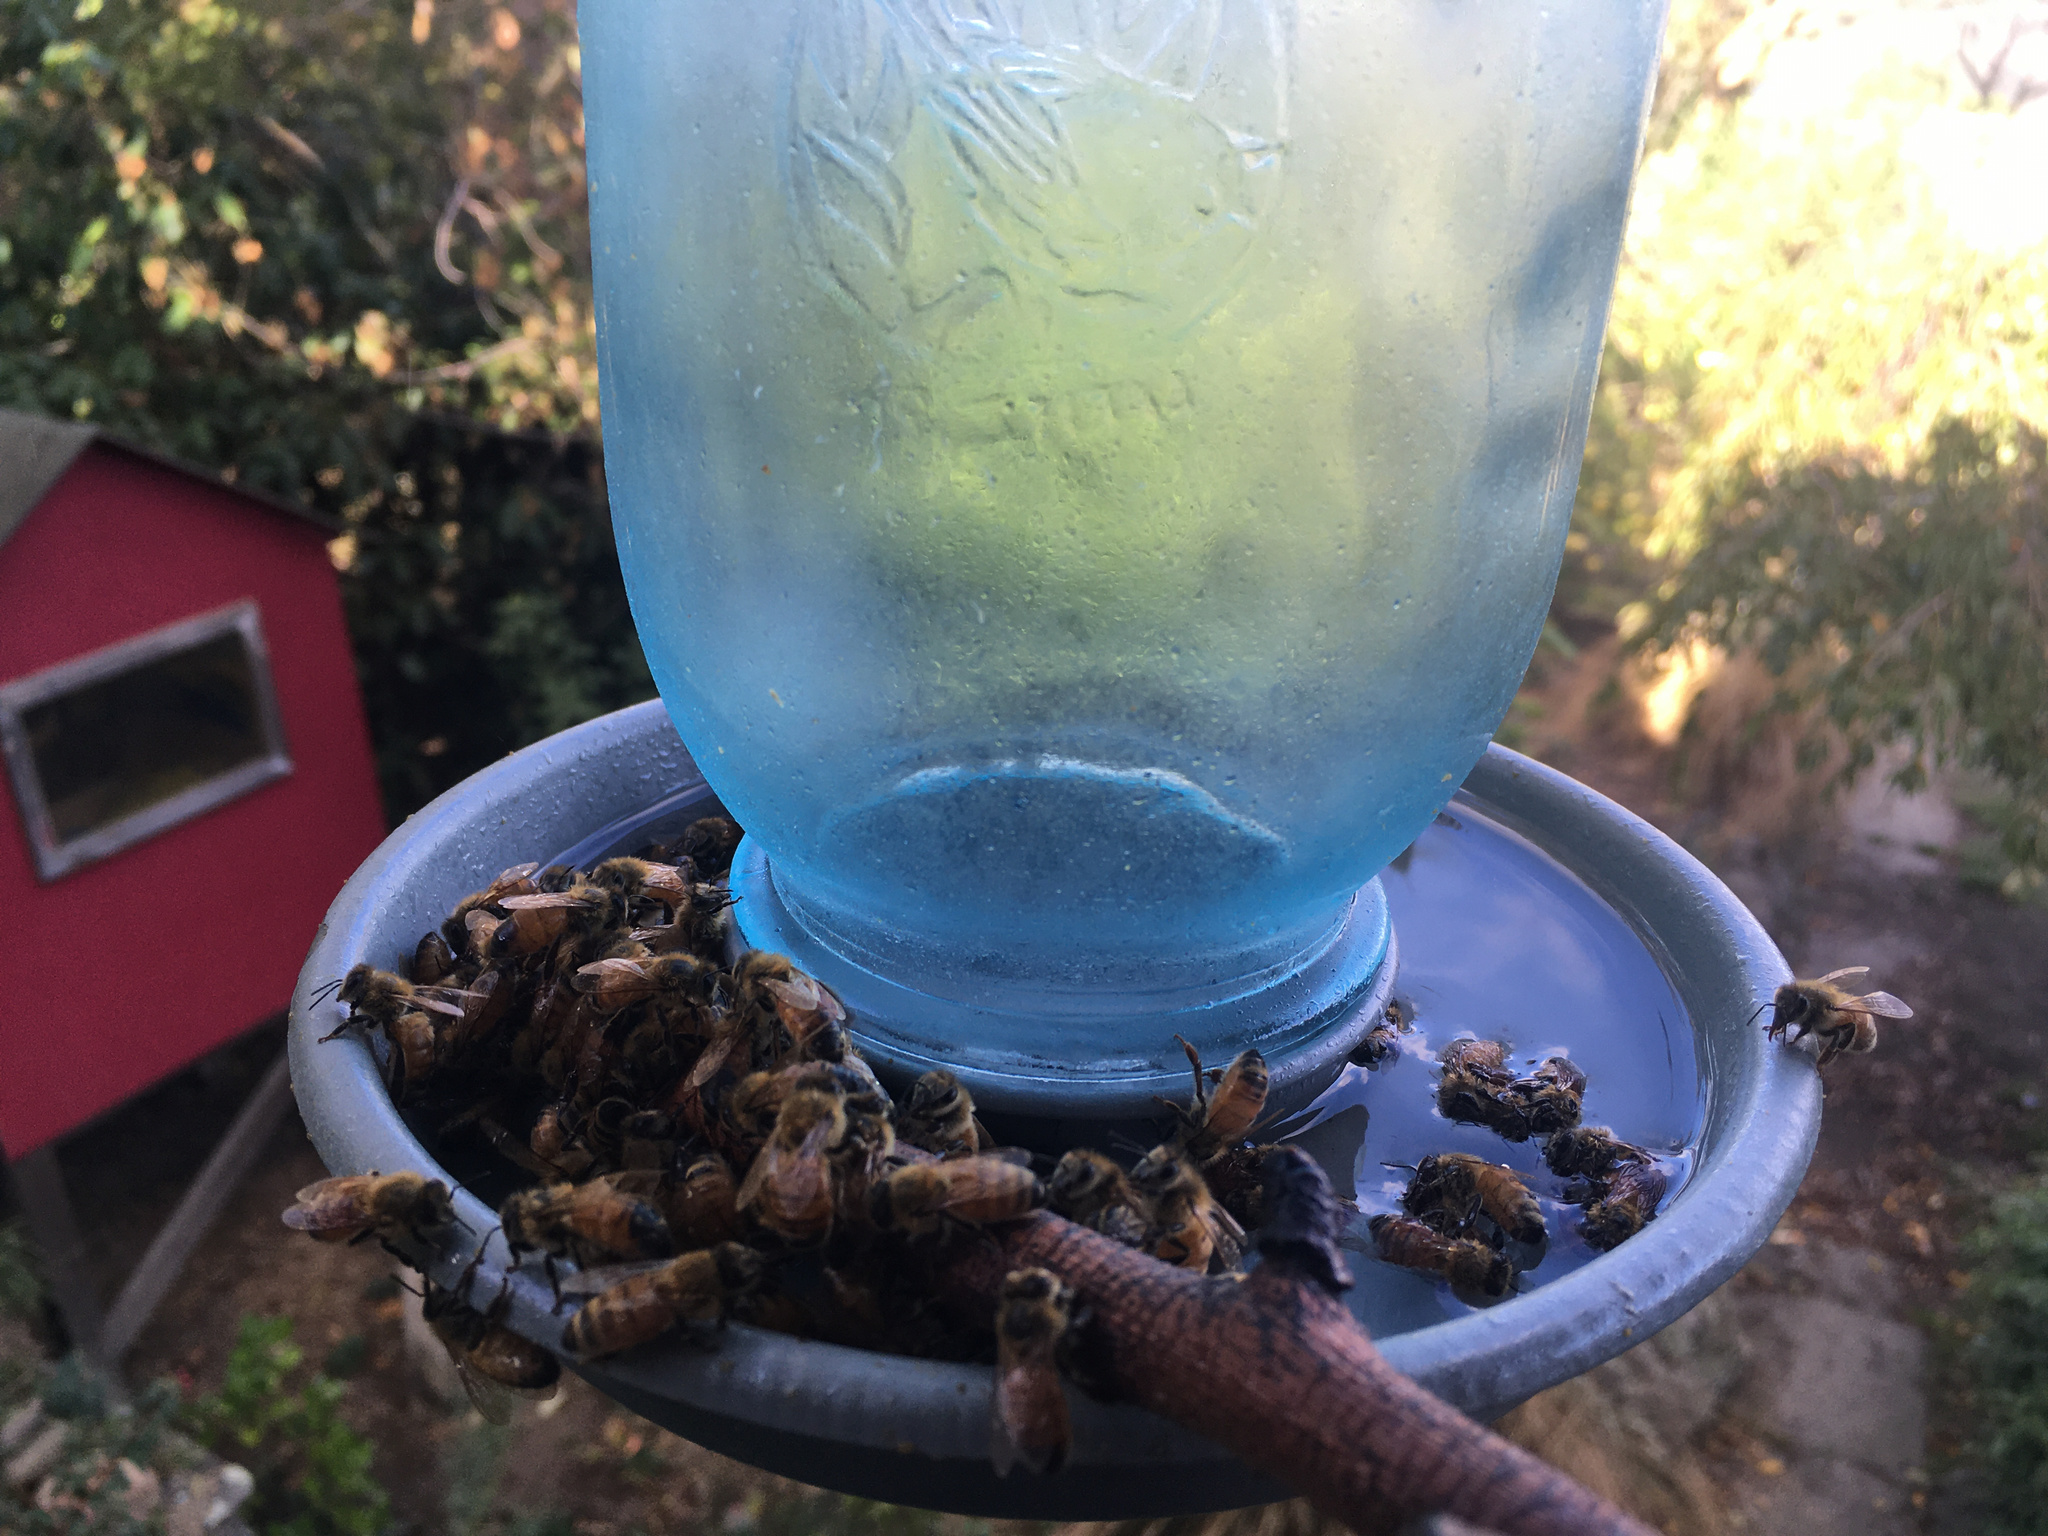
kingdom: Animalia
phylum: Arthropoda
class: Insecta
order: Hymenoptera
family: Apidae
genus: Apis
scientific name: Apis mellifera
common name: Honey bee
